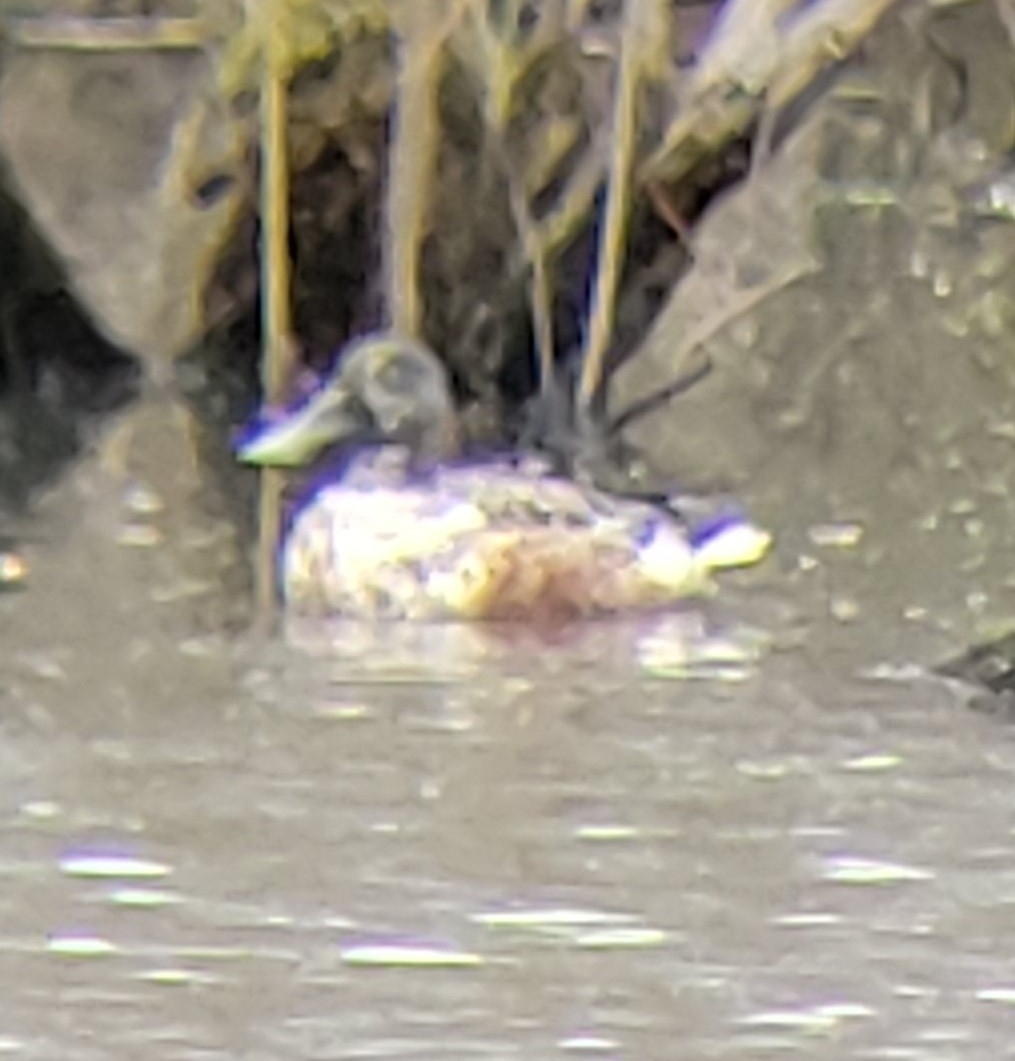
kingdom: Animalia
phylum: Chordata
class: Aves
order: Anseriformes
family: Anatidae
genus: Spatula
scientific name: Spatula clypeata
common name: Northern shoveler
